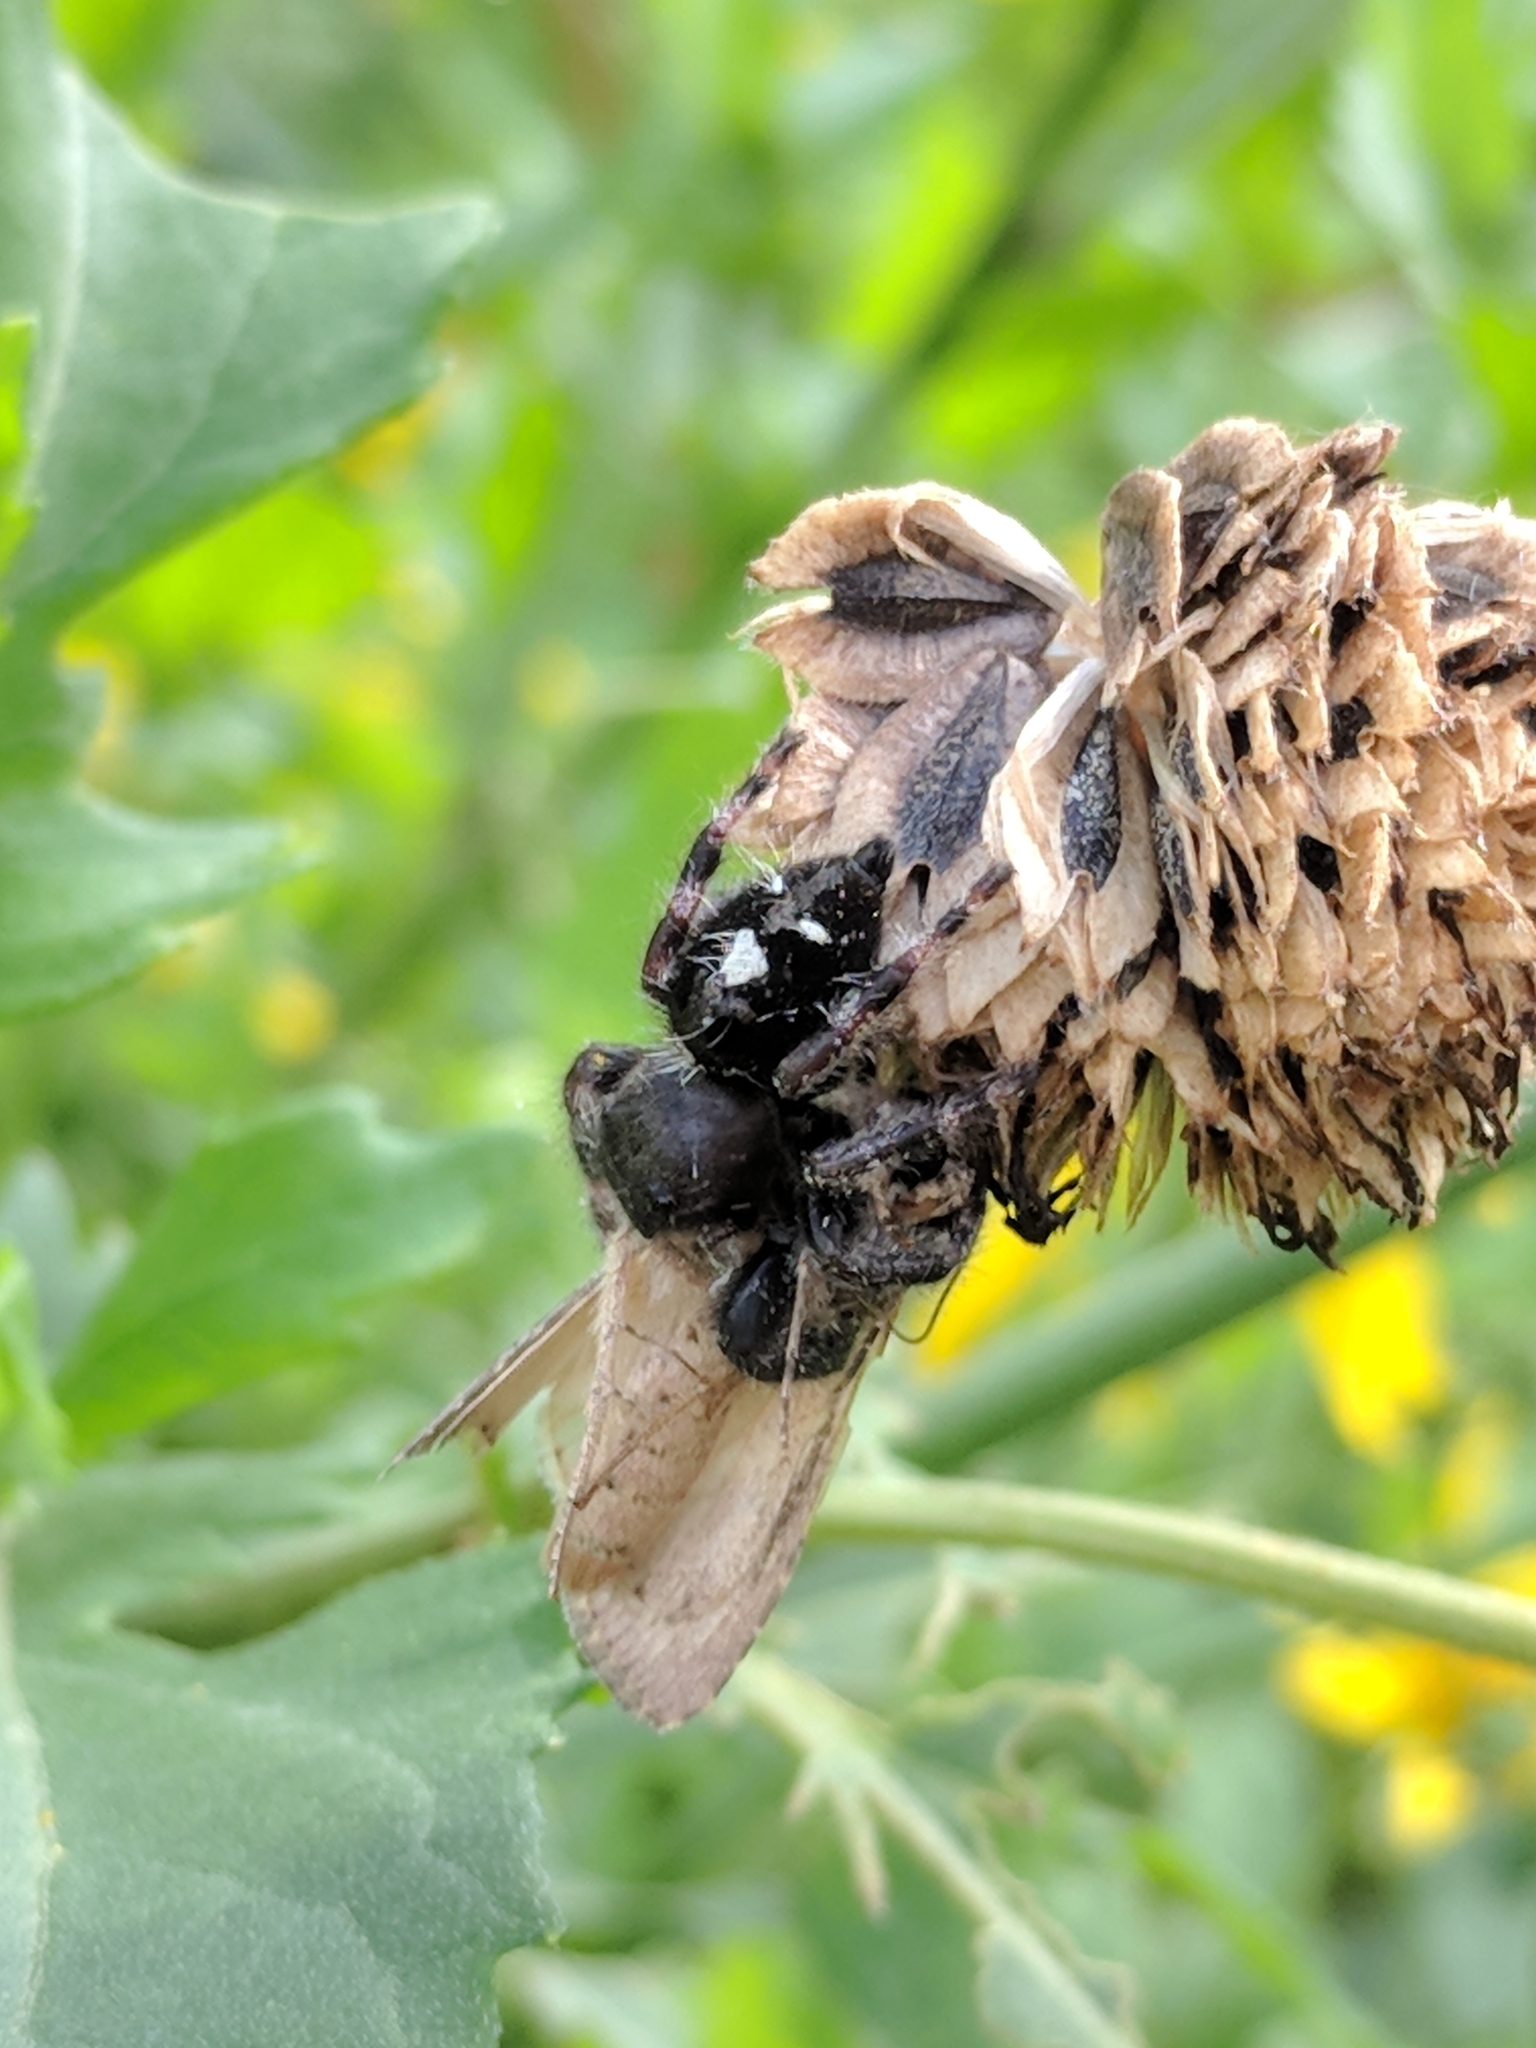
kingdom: Animalia
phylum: Arthropoda
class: Arachnida
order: Araneae
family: Salticidae
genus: Phidippus
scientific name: Phidippus audax
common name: Bold jumper
